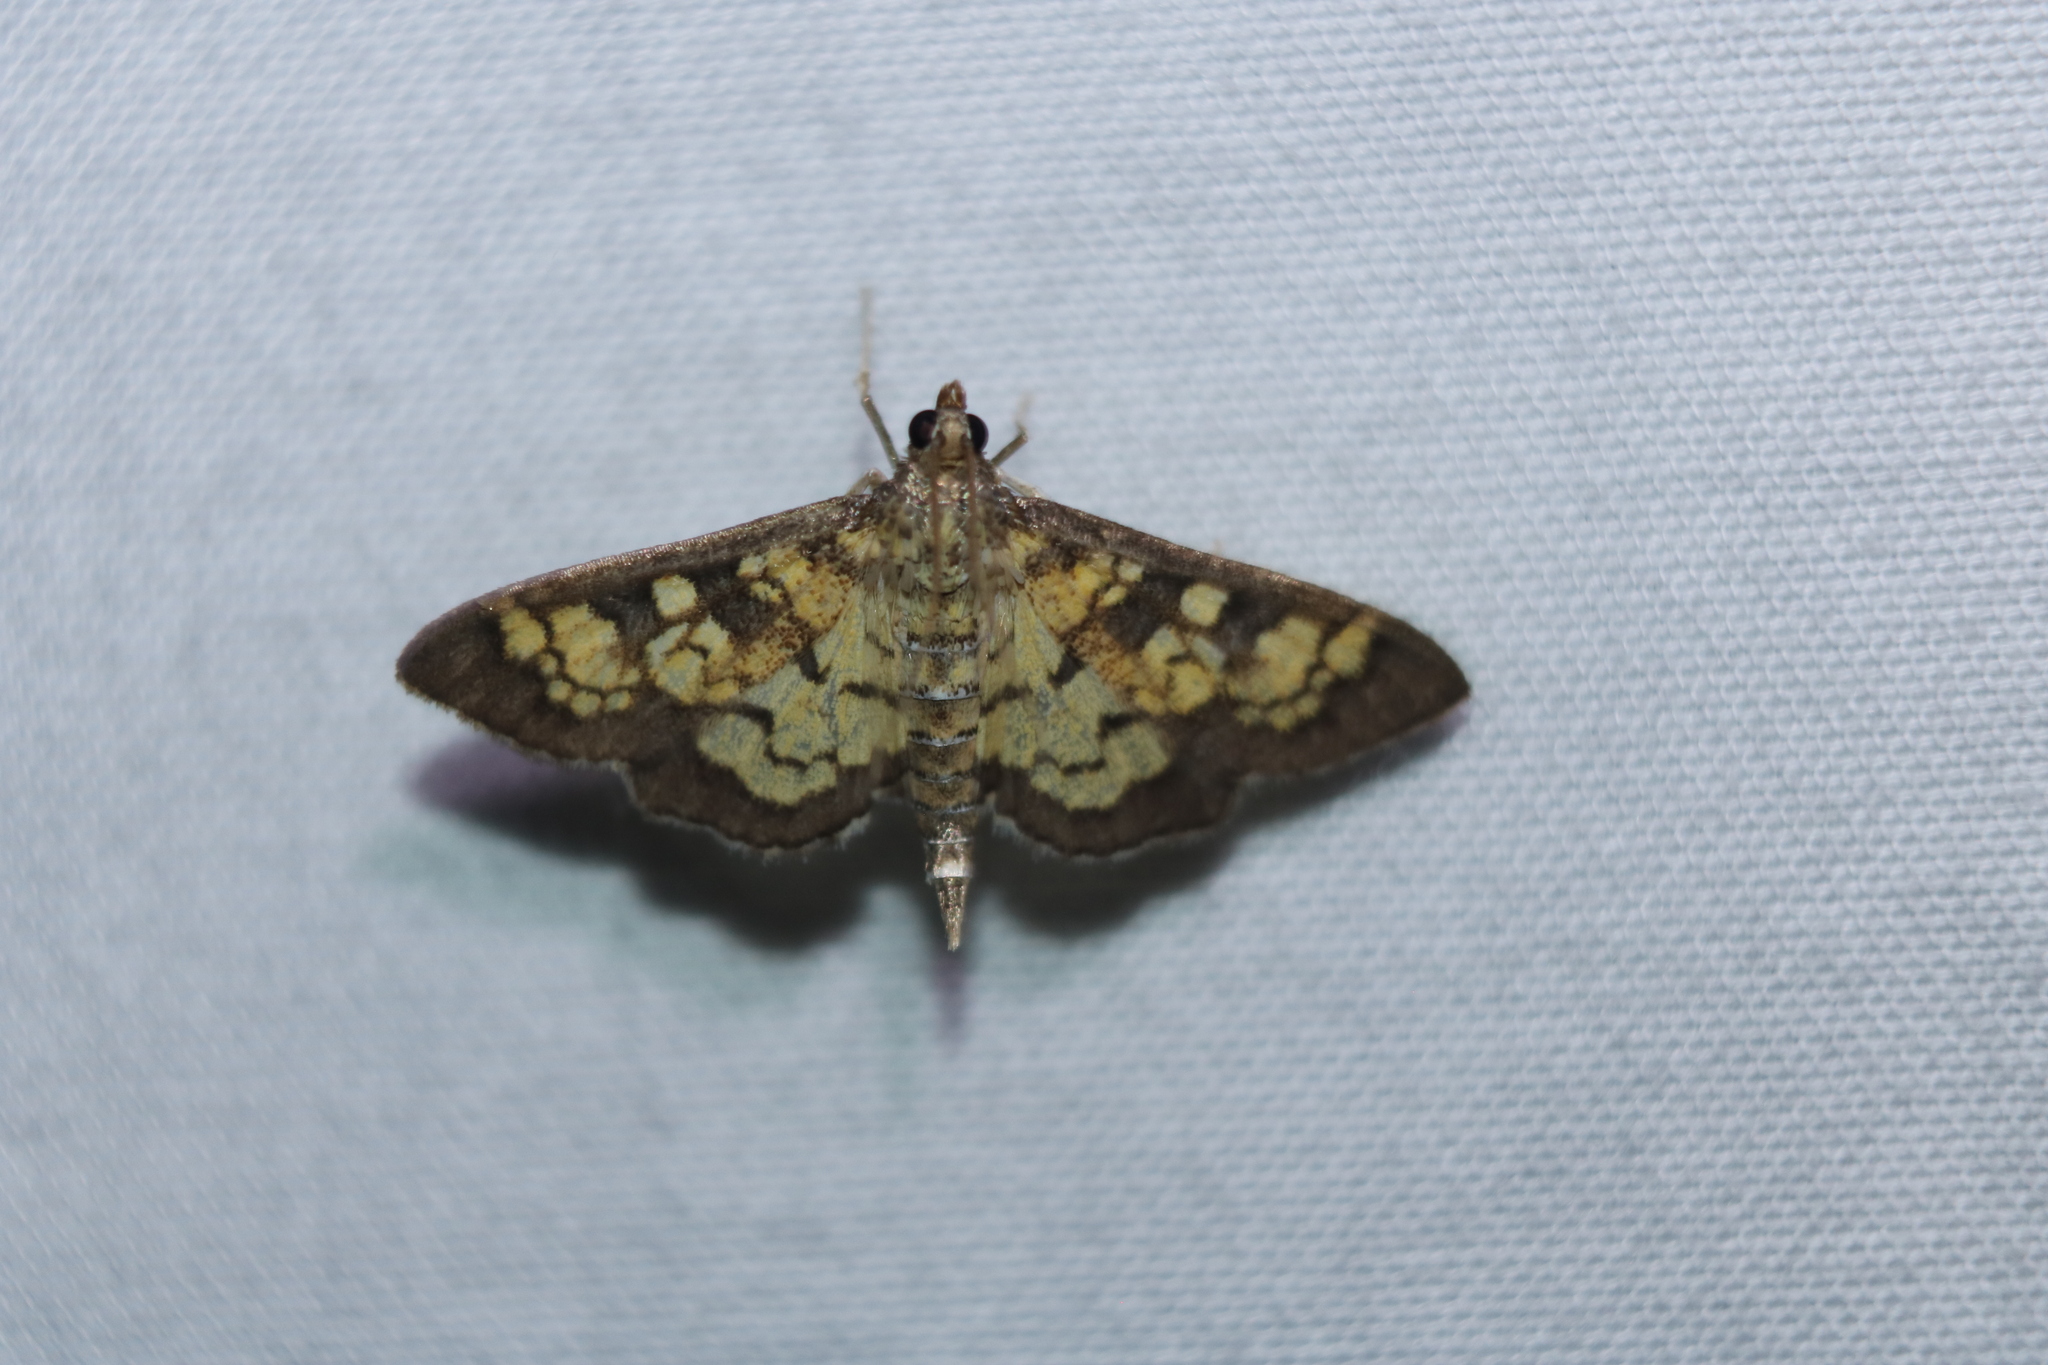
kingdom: Animalia
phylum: Arthropoda
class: Insecta
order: Lepidoptera
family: Crambidae
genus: Epipagis
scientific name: Epipagis adipaloides
